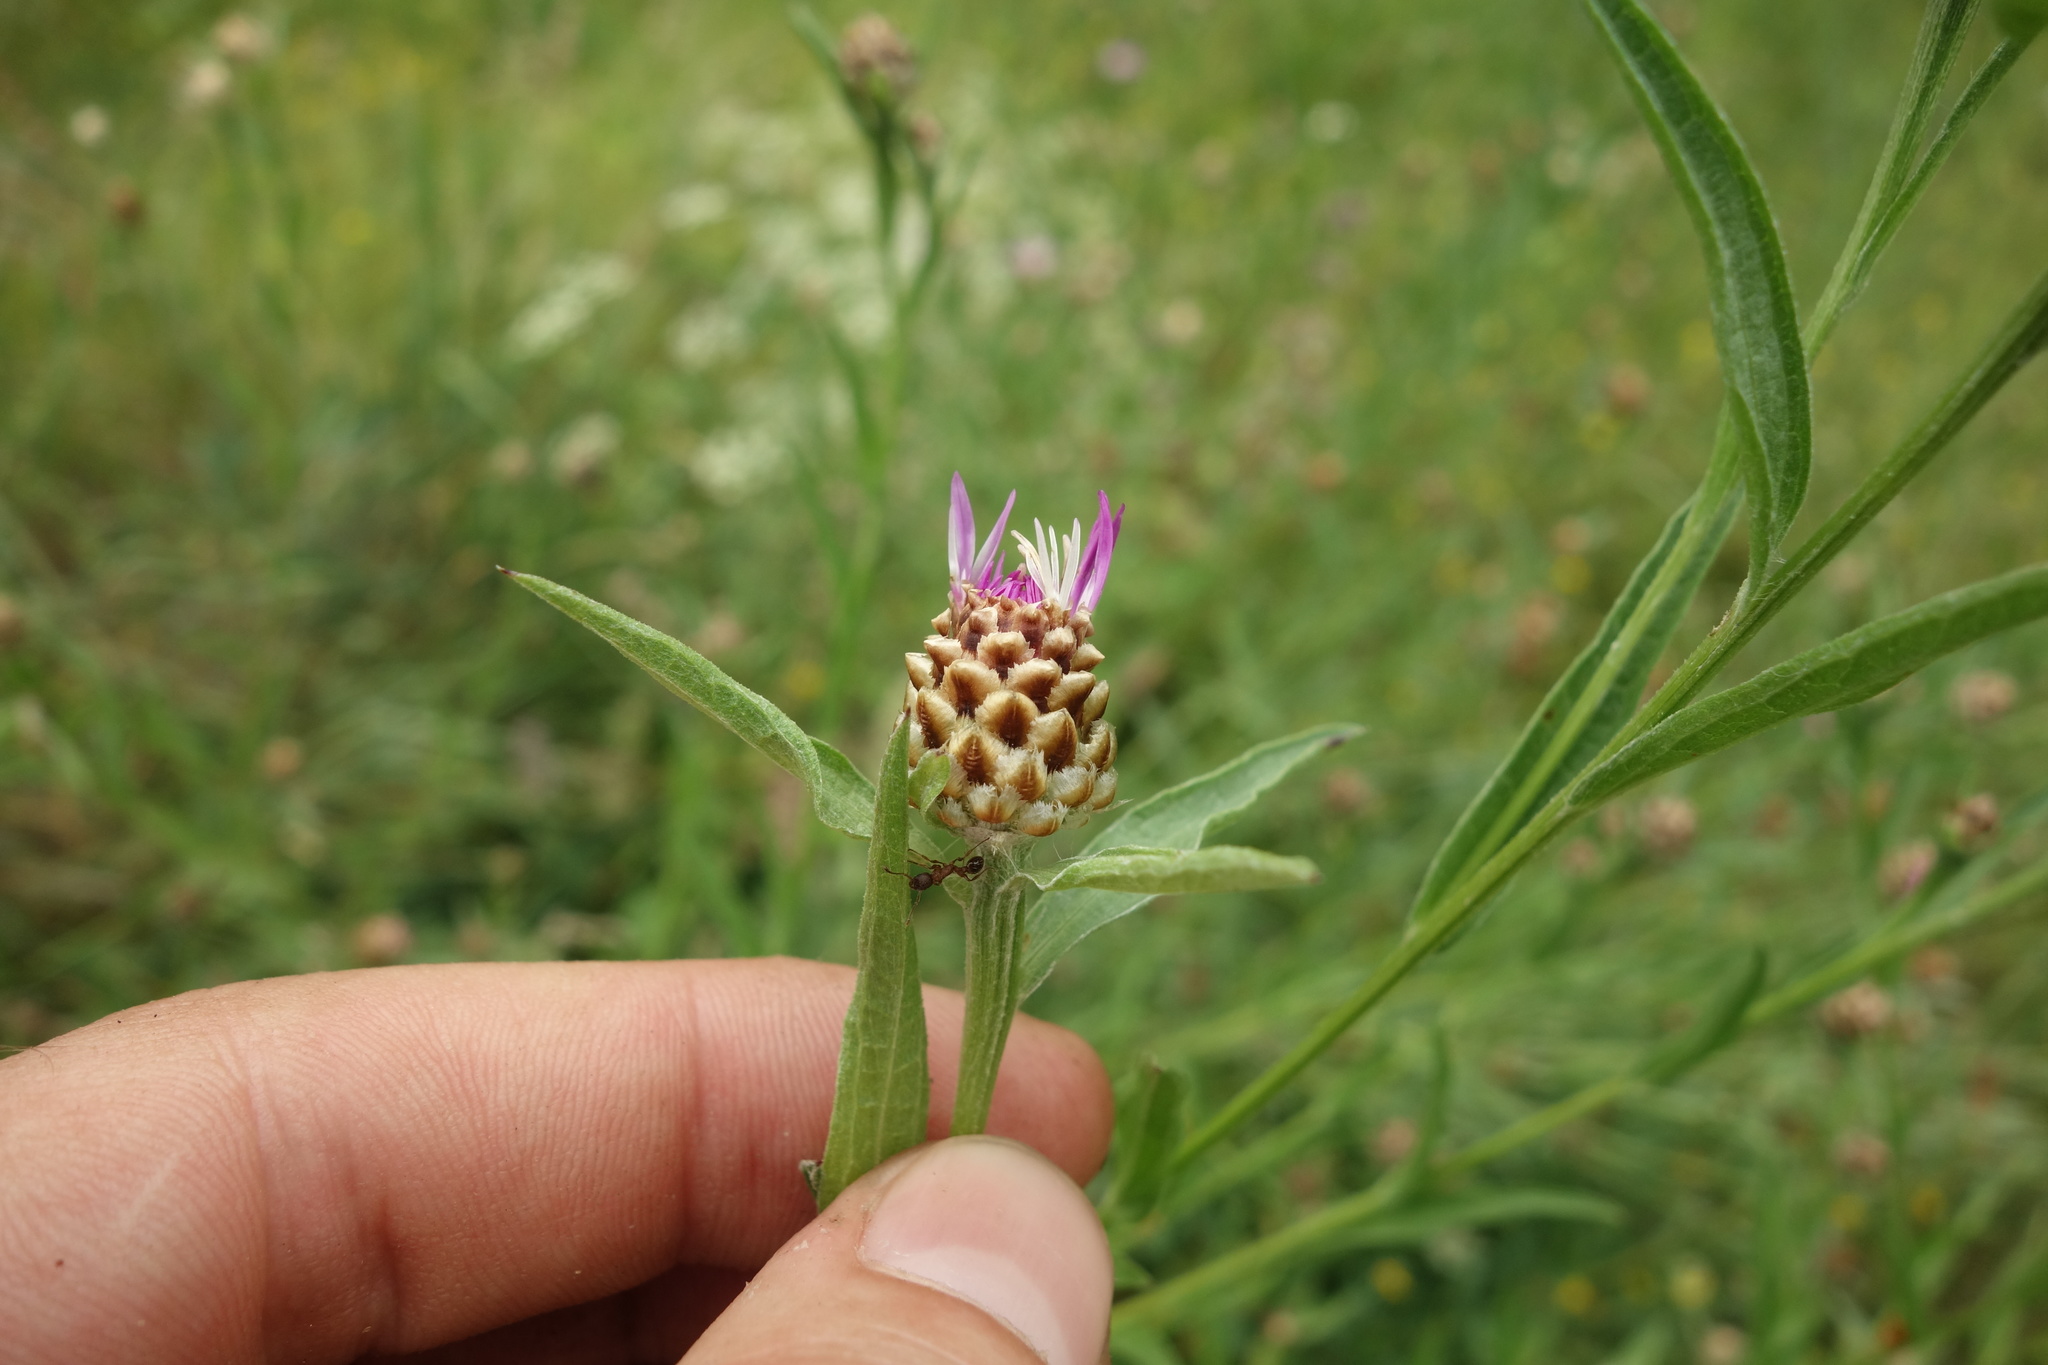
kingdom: Plantae
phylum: Tracheophyta
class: Magnoliopsida
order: Asterales
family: Asteraceae
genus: Centaurea
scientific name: Centaurea jacea
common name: Brown knapweed
